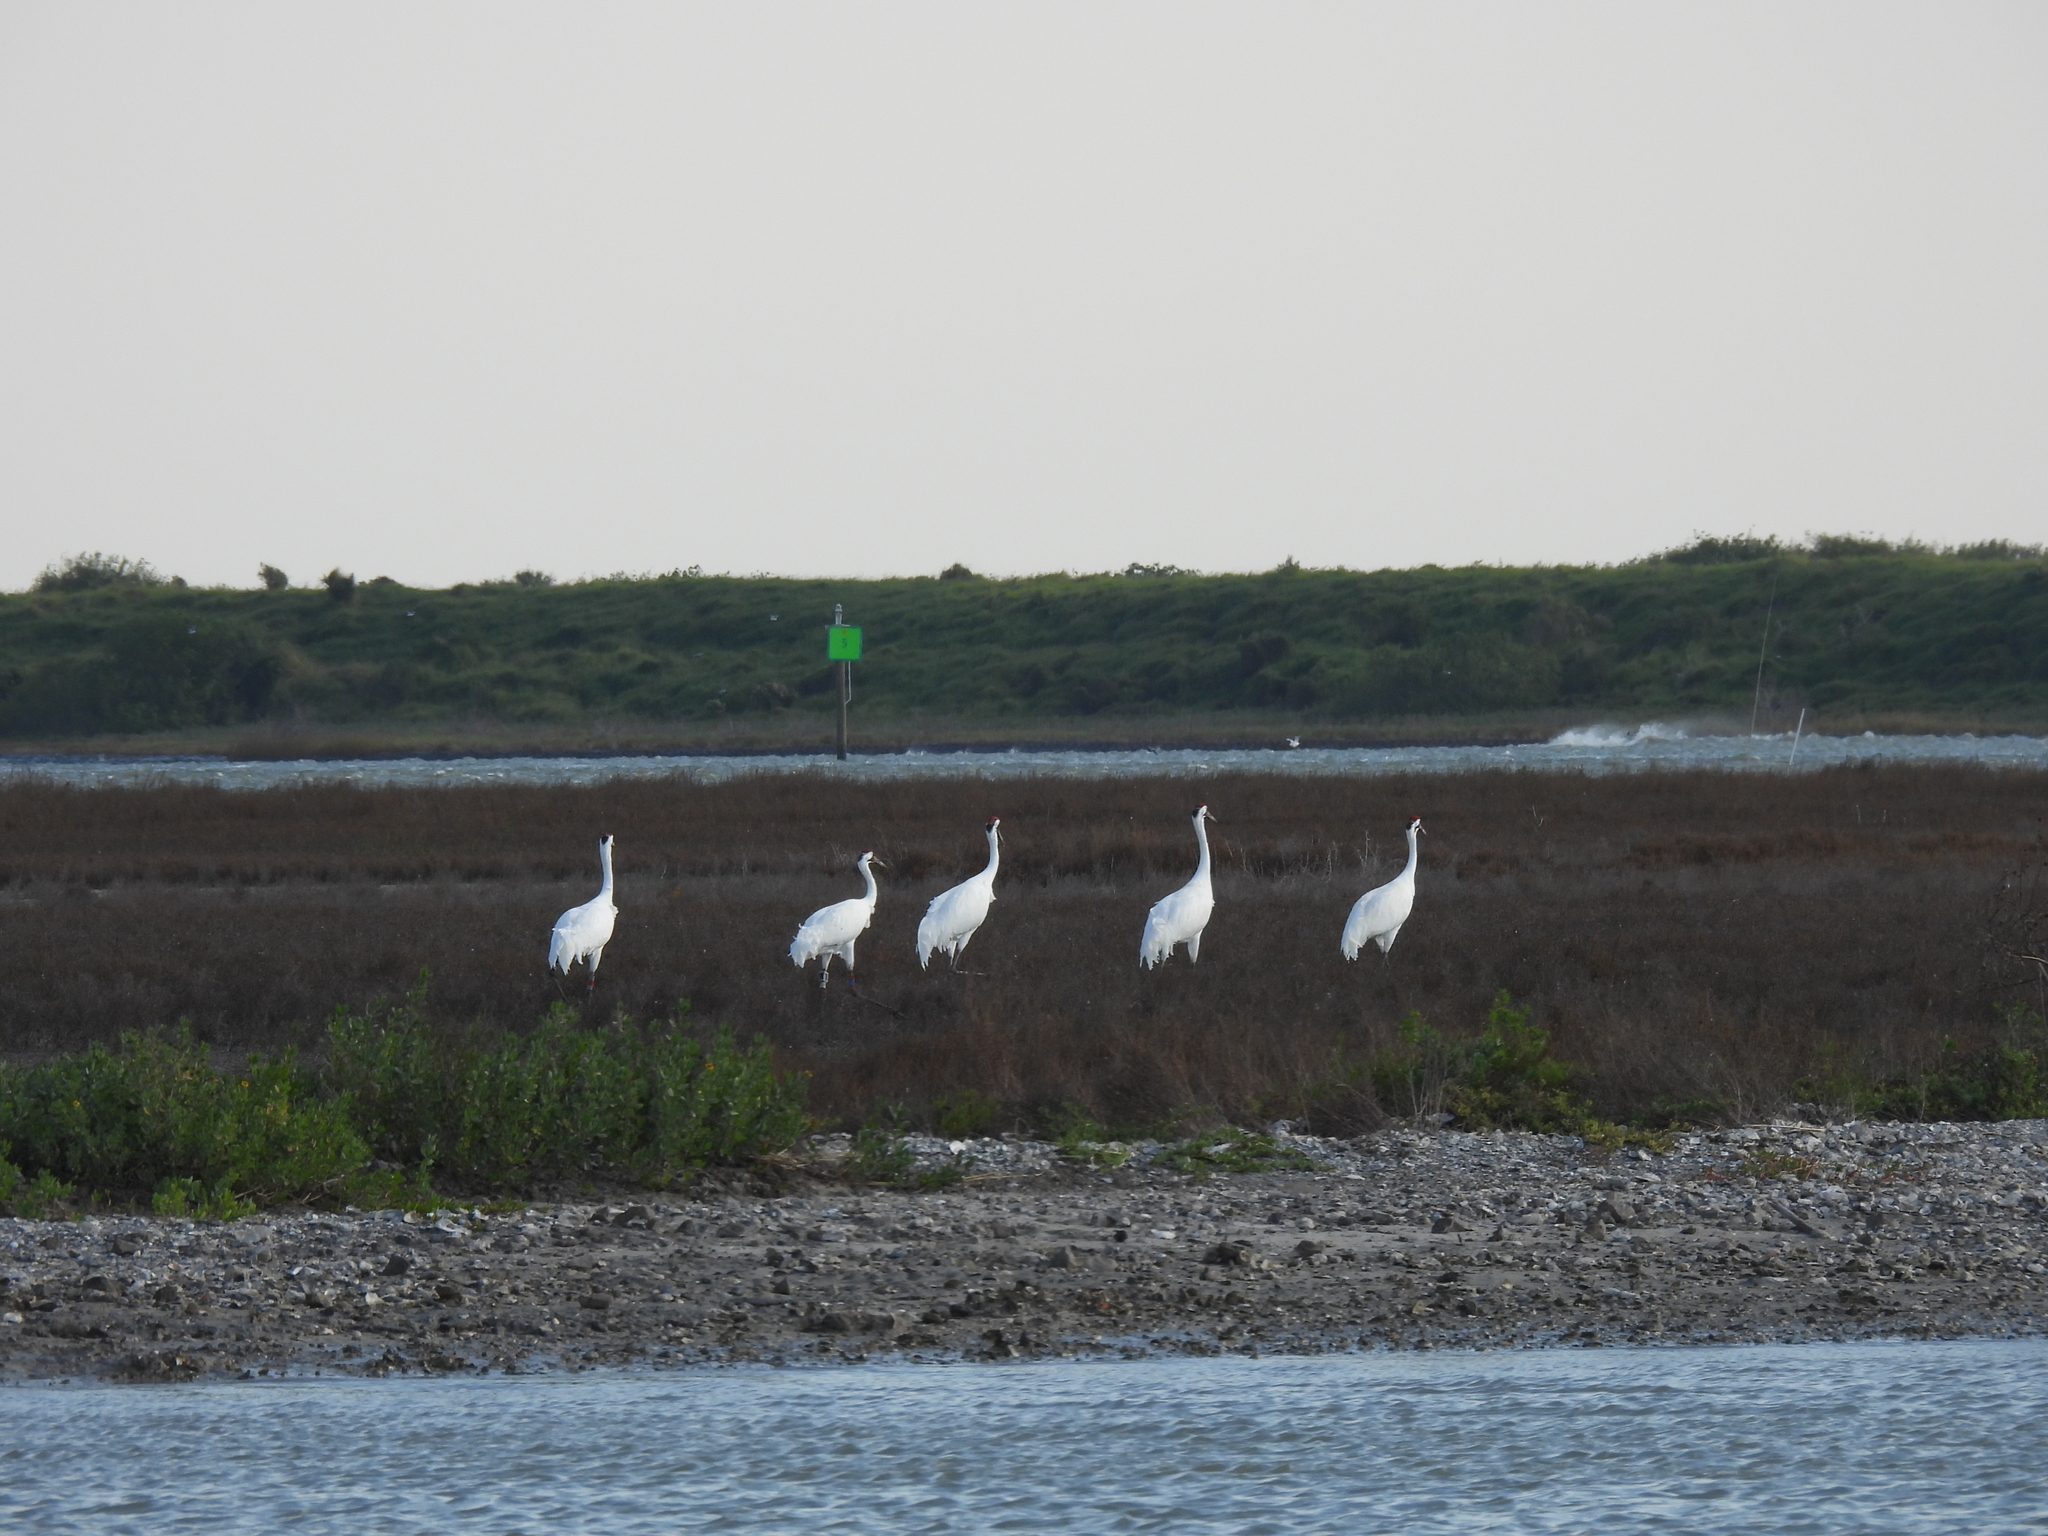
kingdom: Animalia
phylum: Chordata
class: Aves
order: Gruiformes
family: Gruidae
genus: Grus
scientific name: Grus americana
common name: Whooping crane
